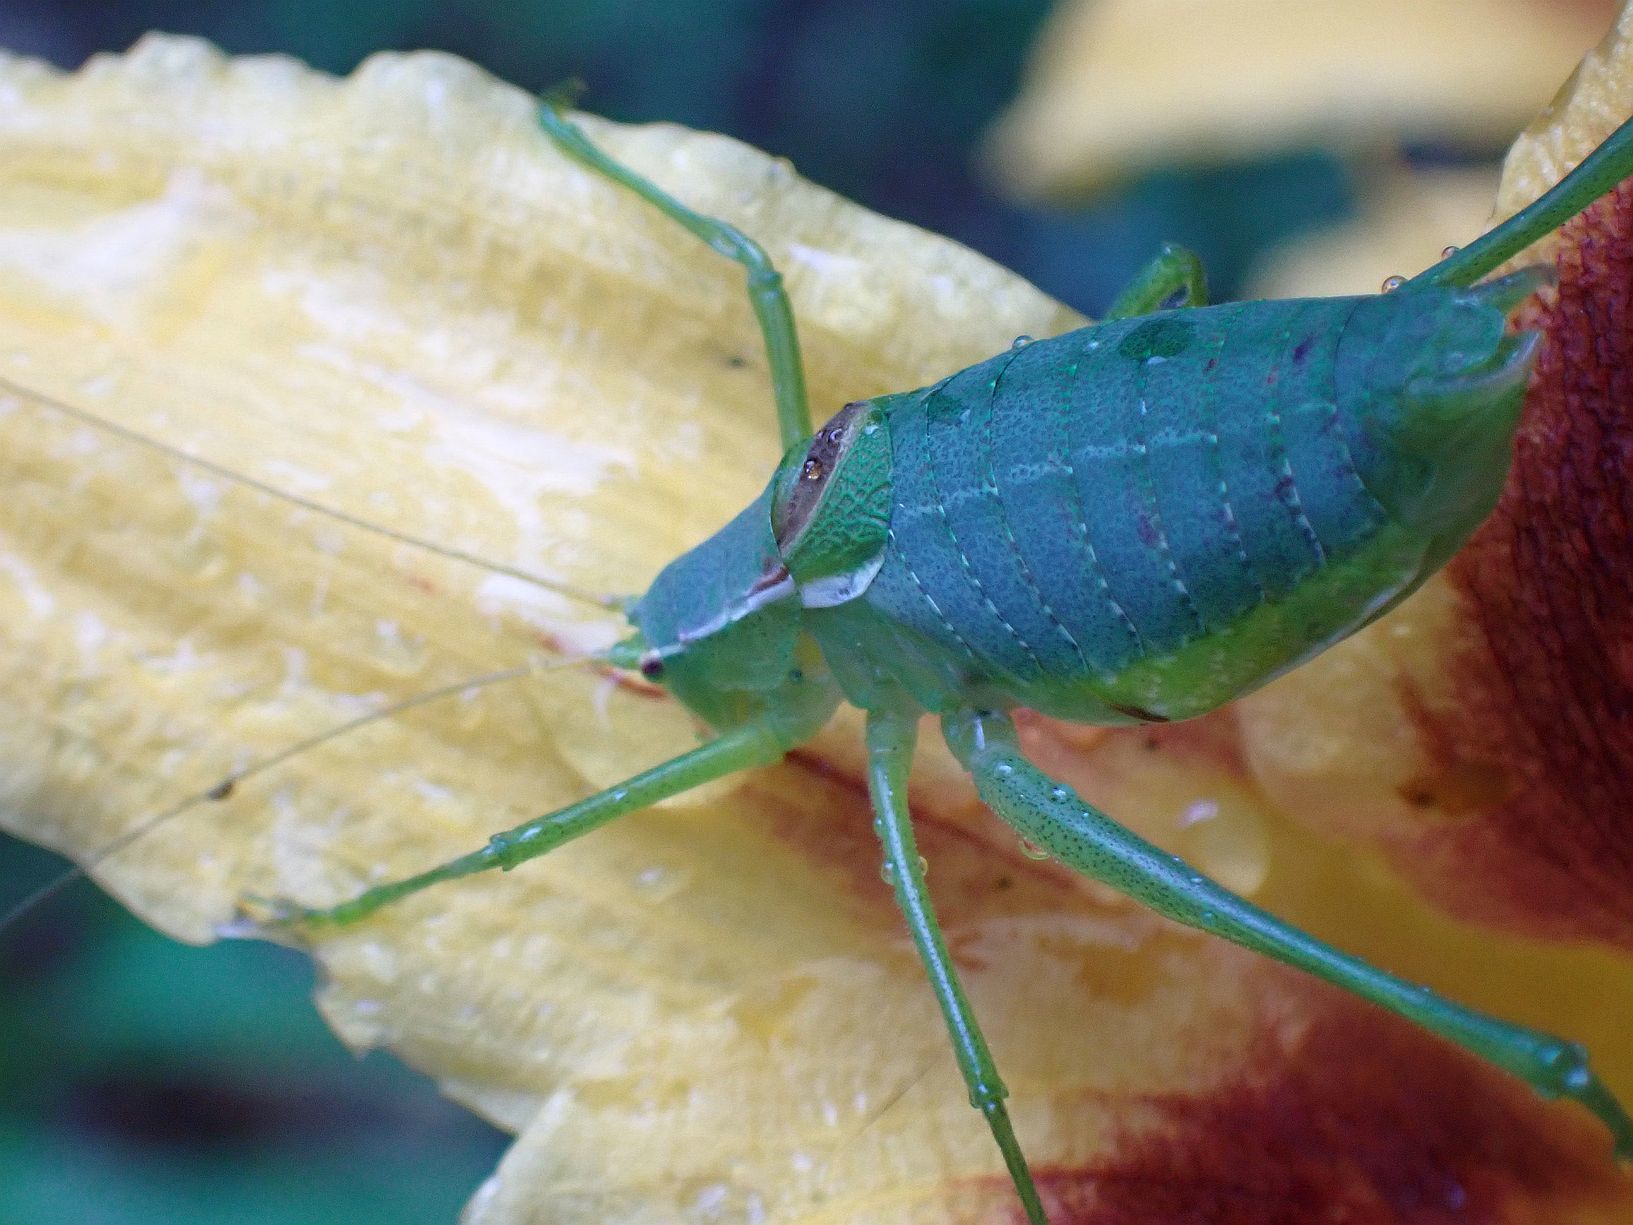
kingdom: Animalia
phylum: Arthropoda
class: Insecta
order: Orthoptera
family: Tettigoniidae
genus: Isophya
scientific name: Isophya modestior
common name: More-modest plump bush-cricket
